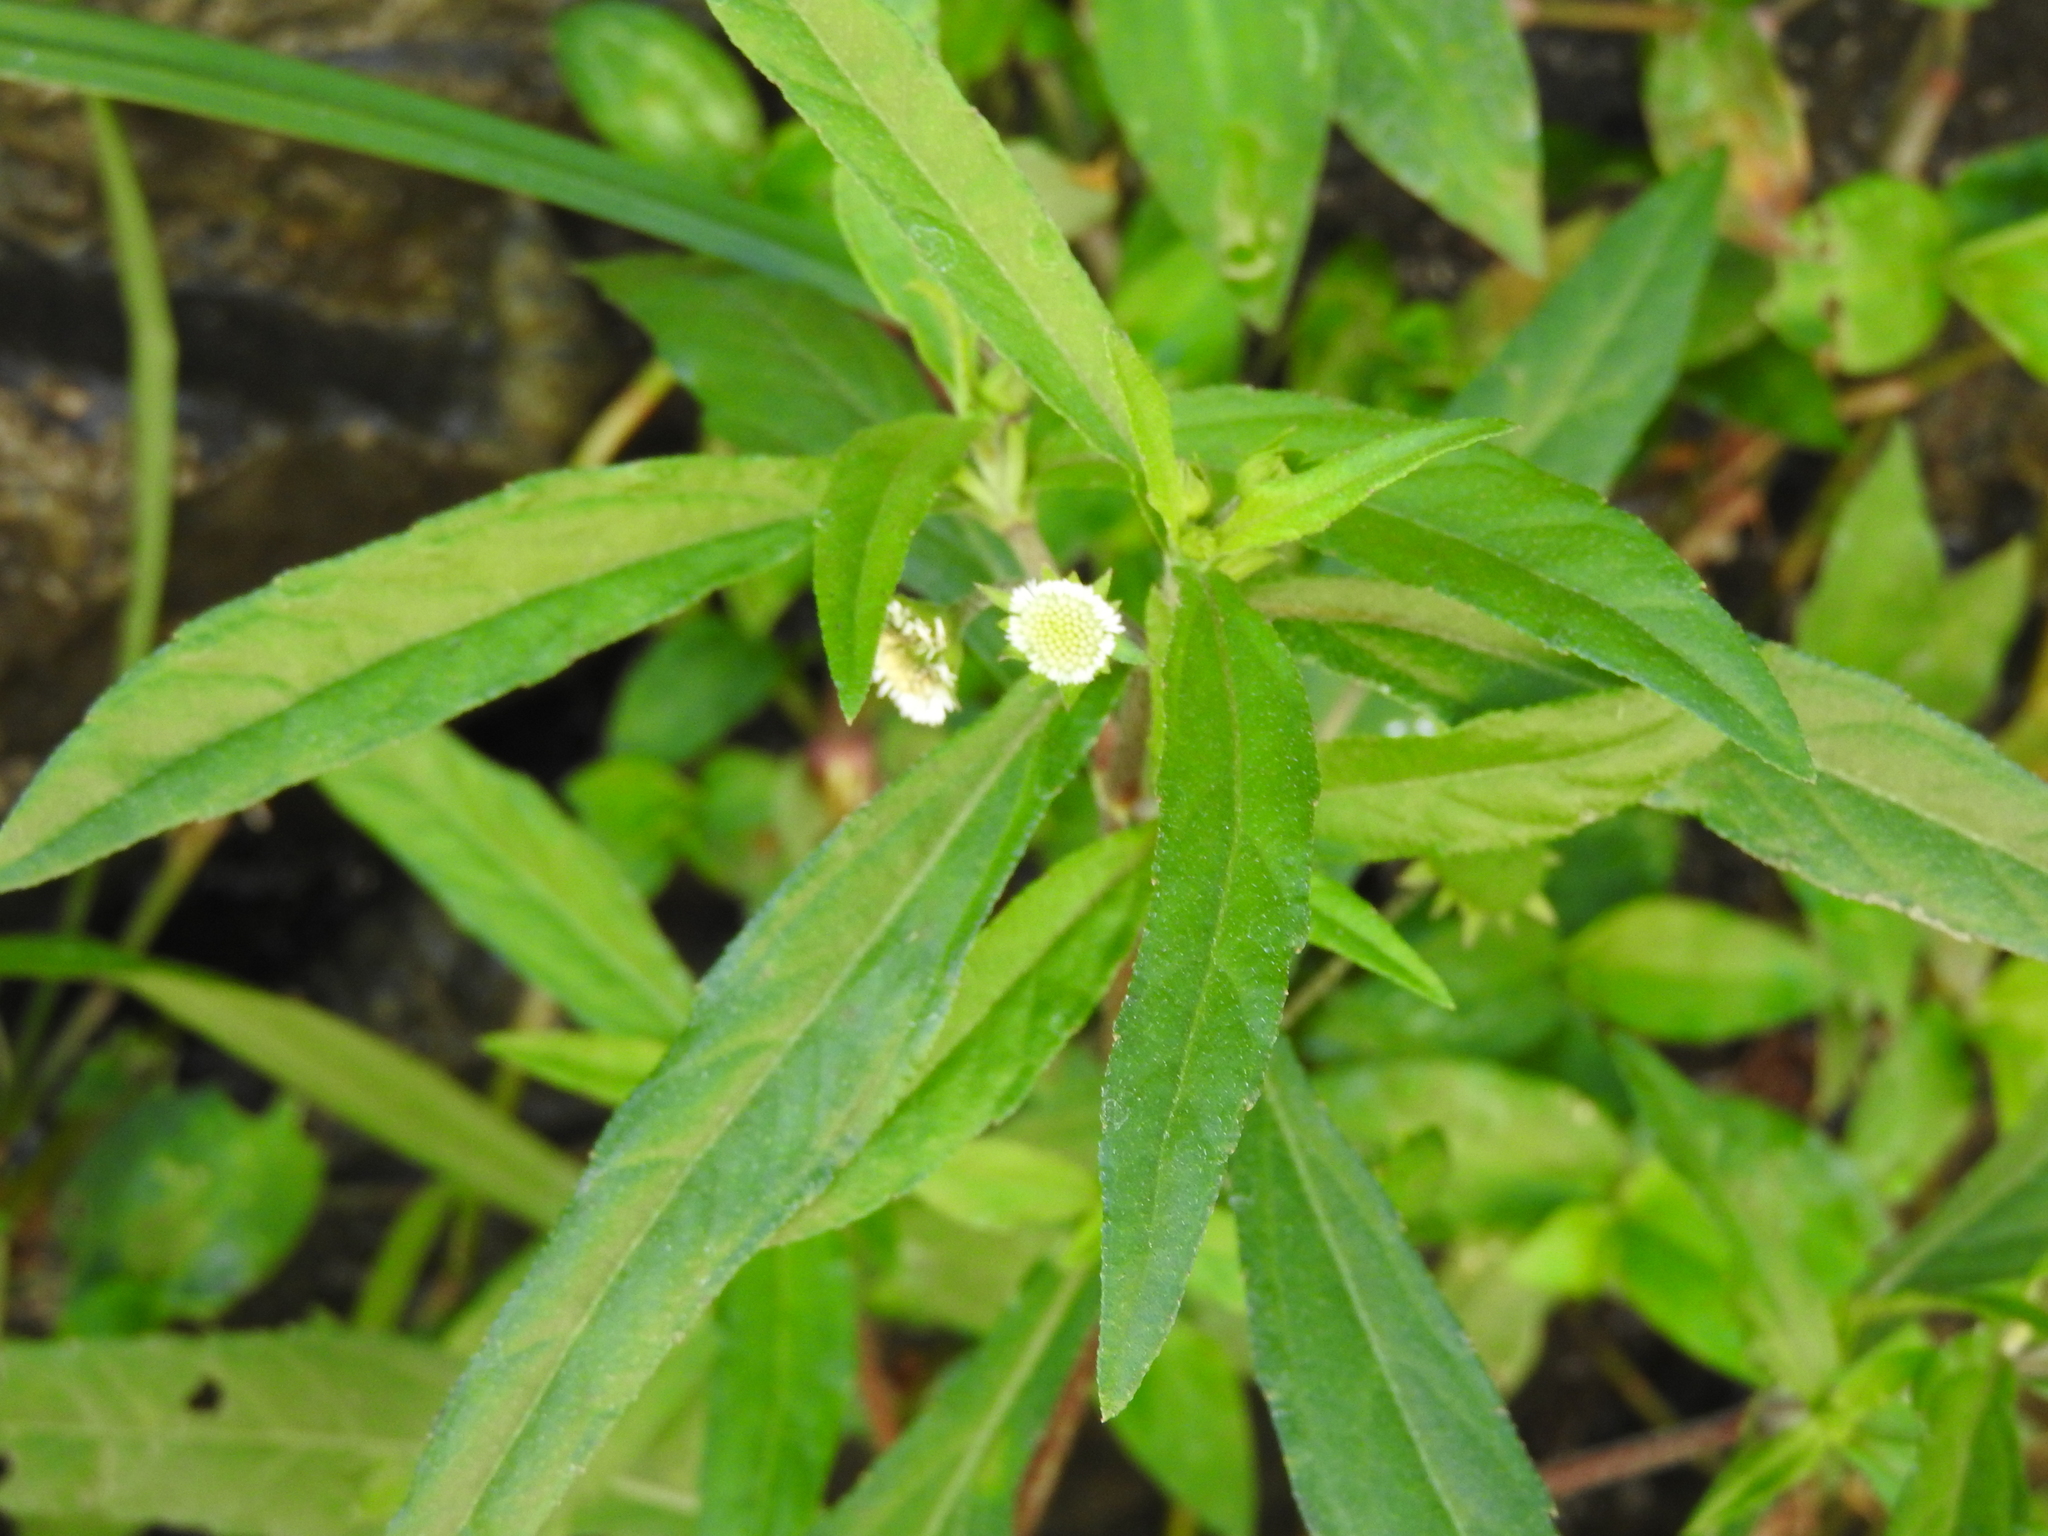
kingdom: Plantae
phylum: Tracheophyta
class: Magnoliopsida
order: Asterales
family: Asteraceae
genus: Eclipta
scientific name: Eclipta prostrata
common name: False daisy
